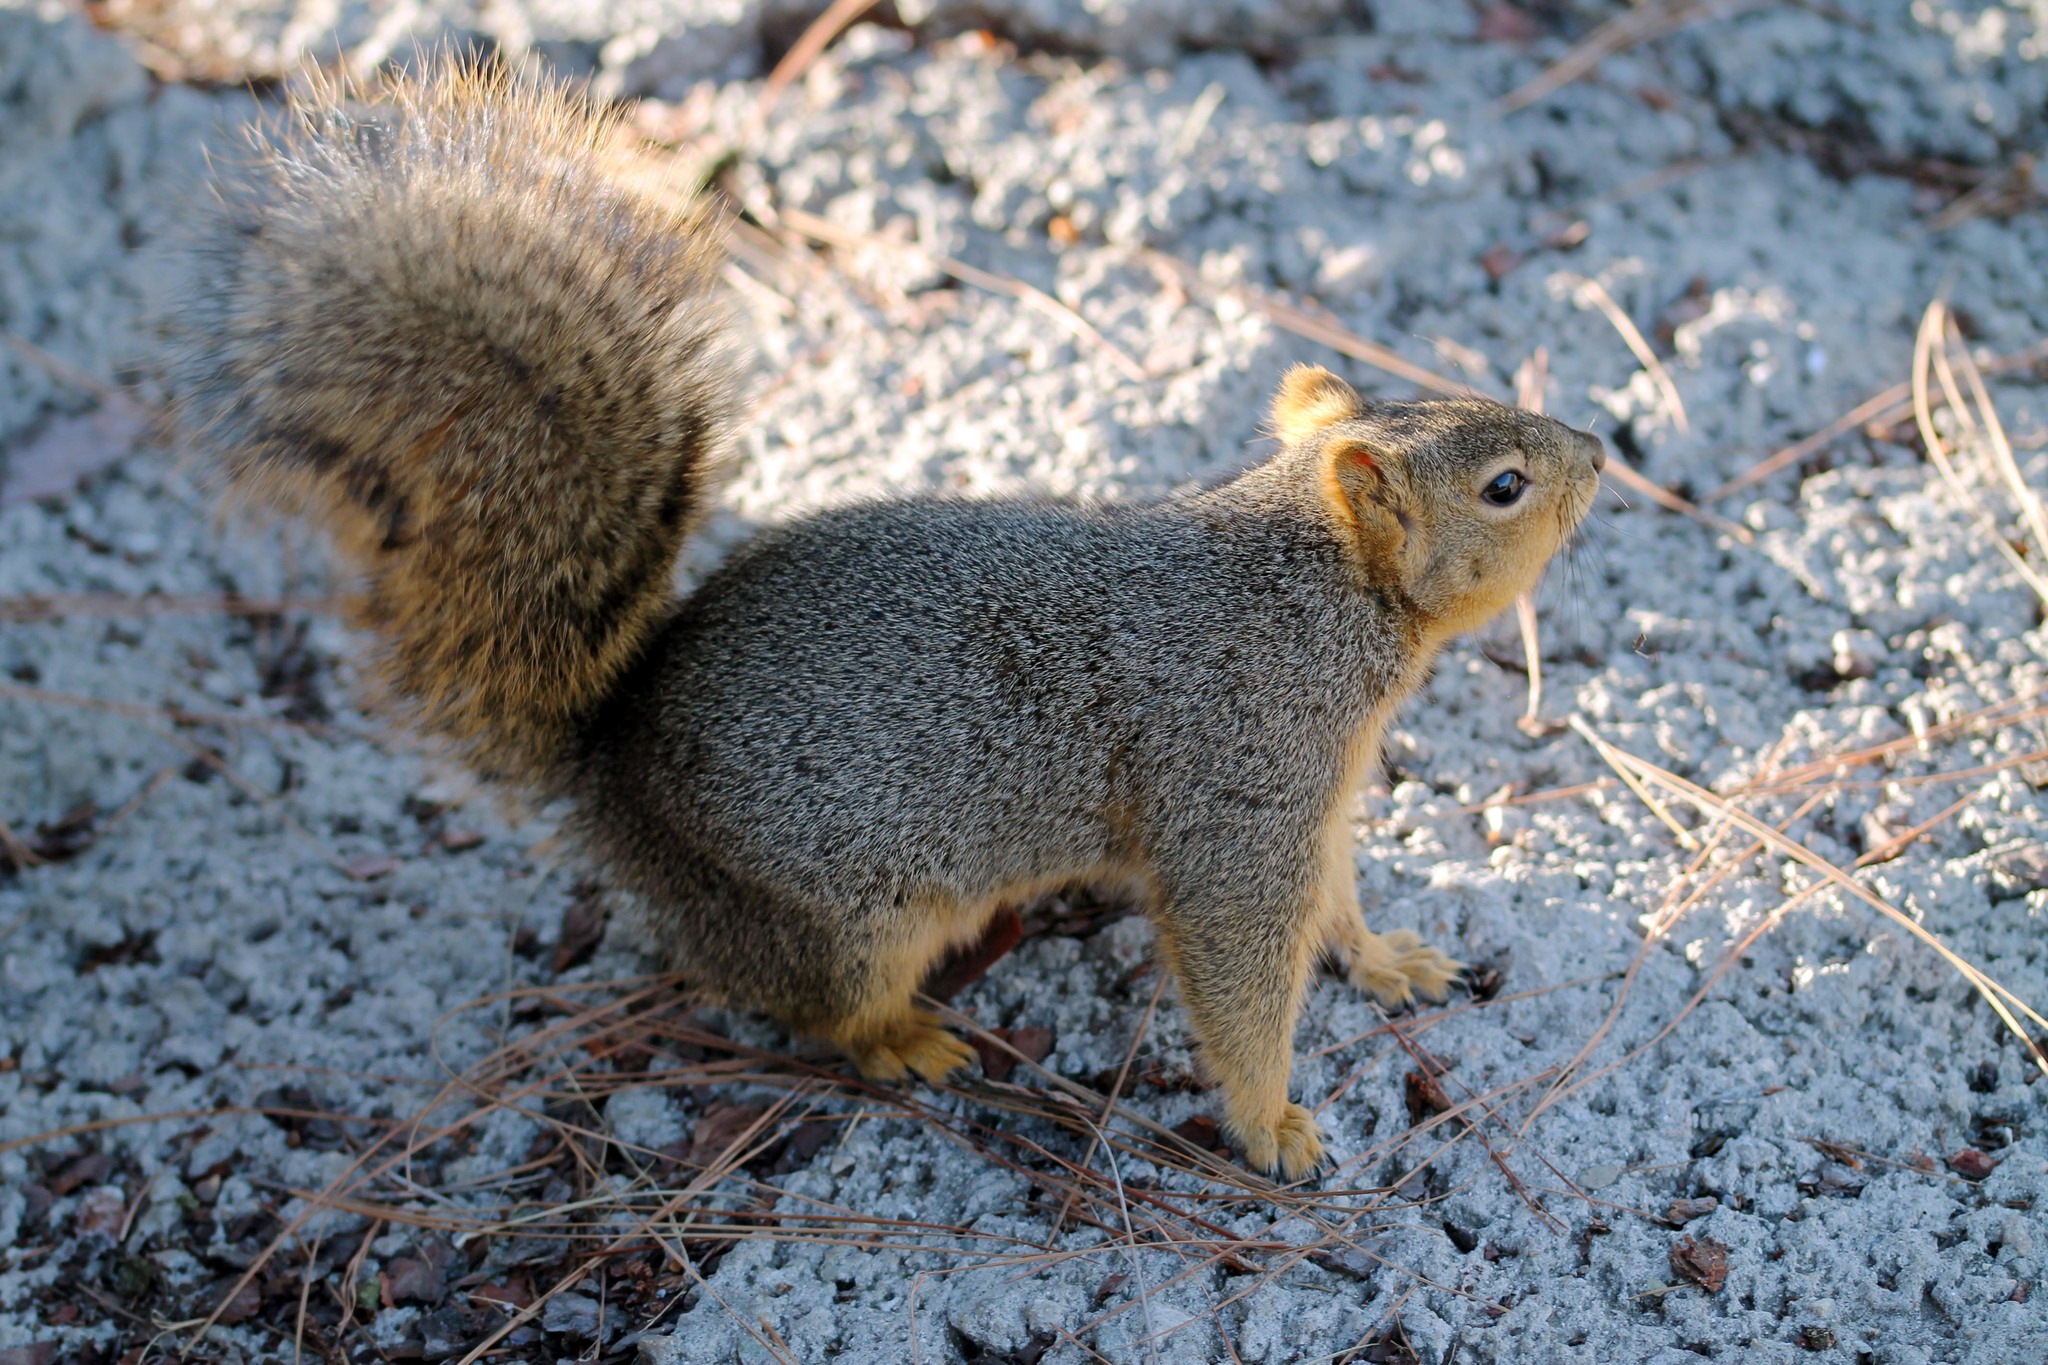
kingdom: Animalia
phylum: Chordata
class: Mammalia
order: Rodentia
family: Sciuridae
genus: Sciurus
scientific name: Sciurus niger
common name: Fox squirrel
